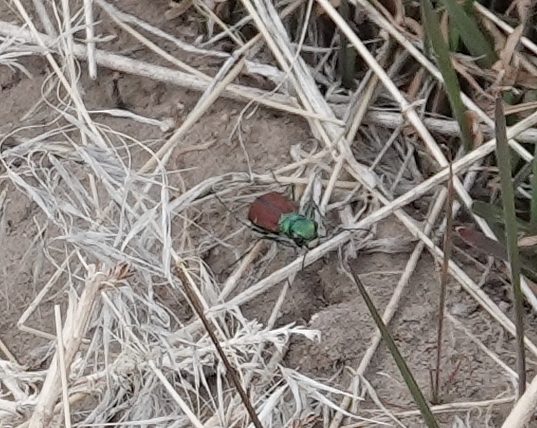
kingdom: Animalia
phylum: Arthropoda
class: Insecta
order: Coleoptera
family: Carabidae
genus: Cicindela
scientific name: Cicindela splendida
